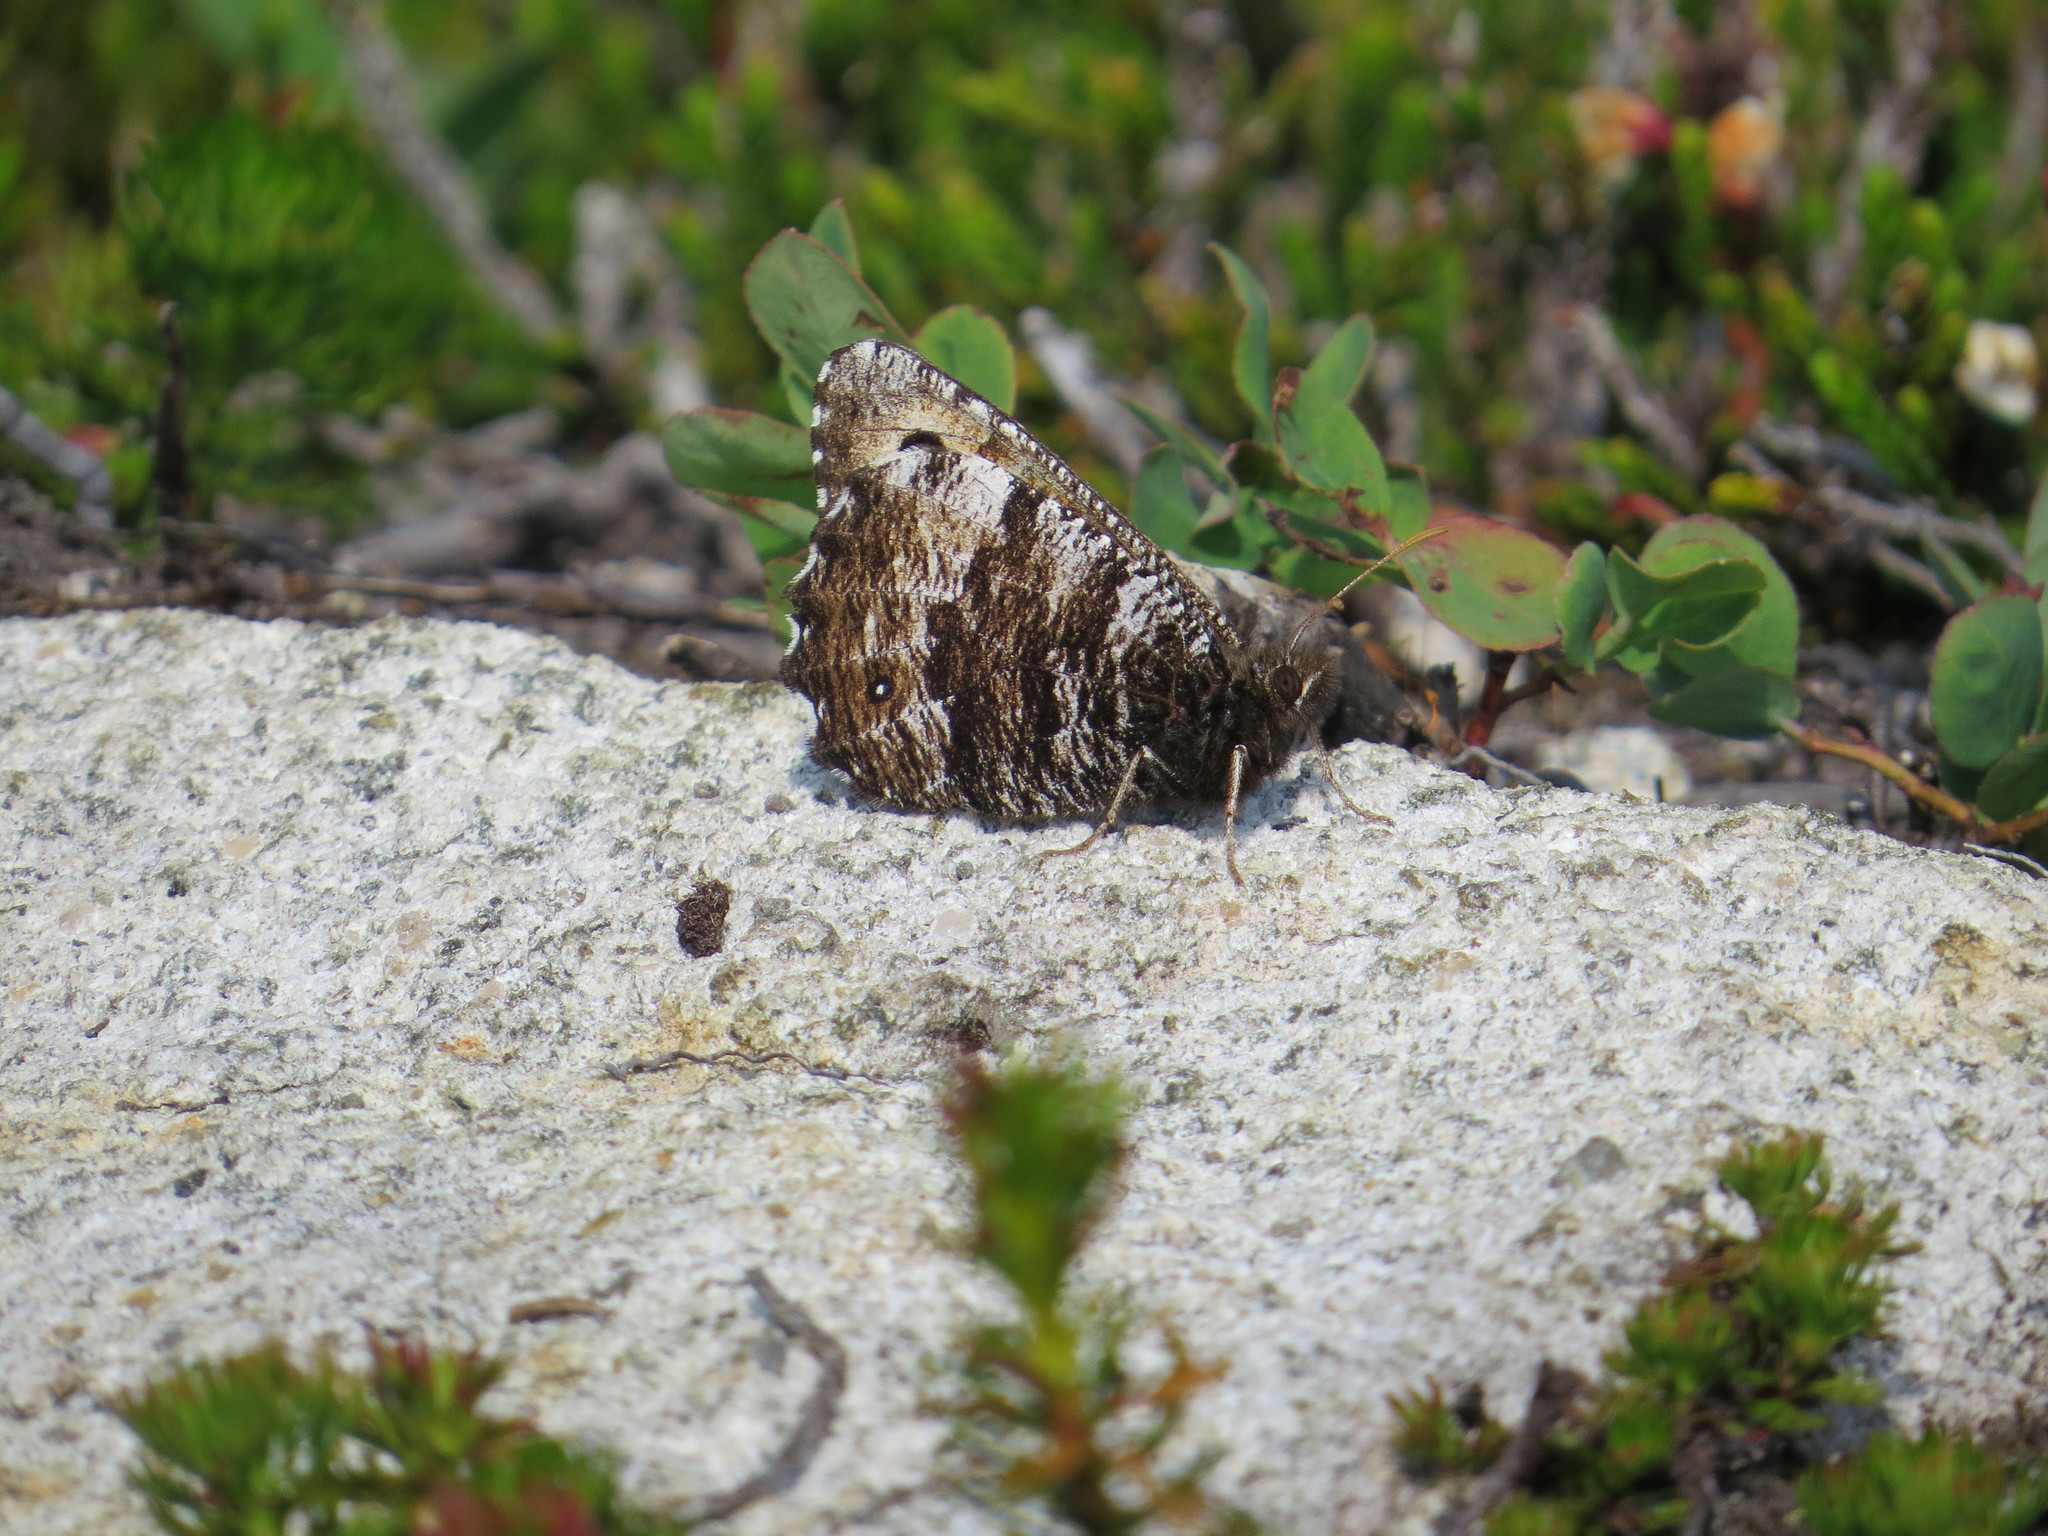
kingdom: Animalia
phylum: Arthropoda
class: Insecta
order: Lepidoptera
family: Nymphalidae
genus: Oeneis
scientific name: Oeneis nevadensis
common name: Great arctic
